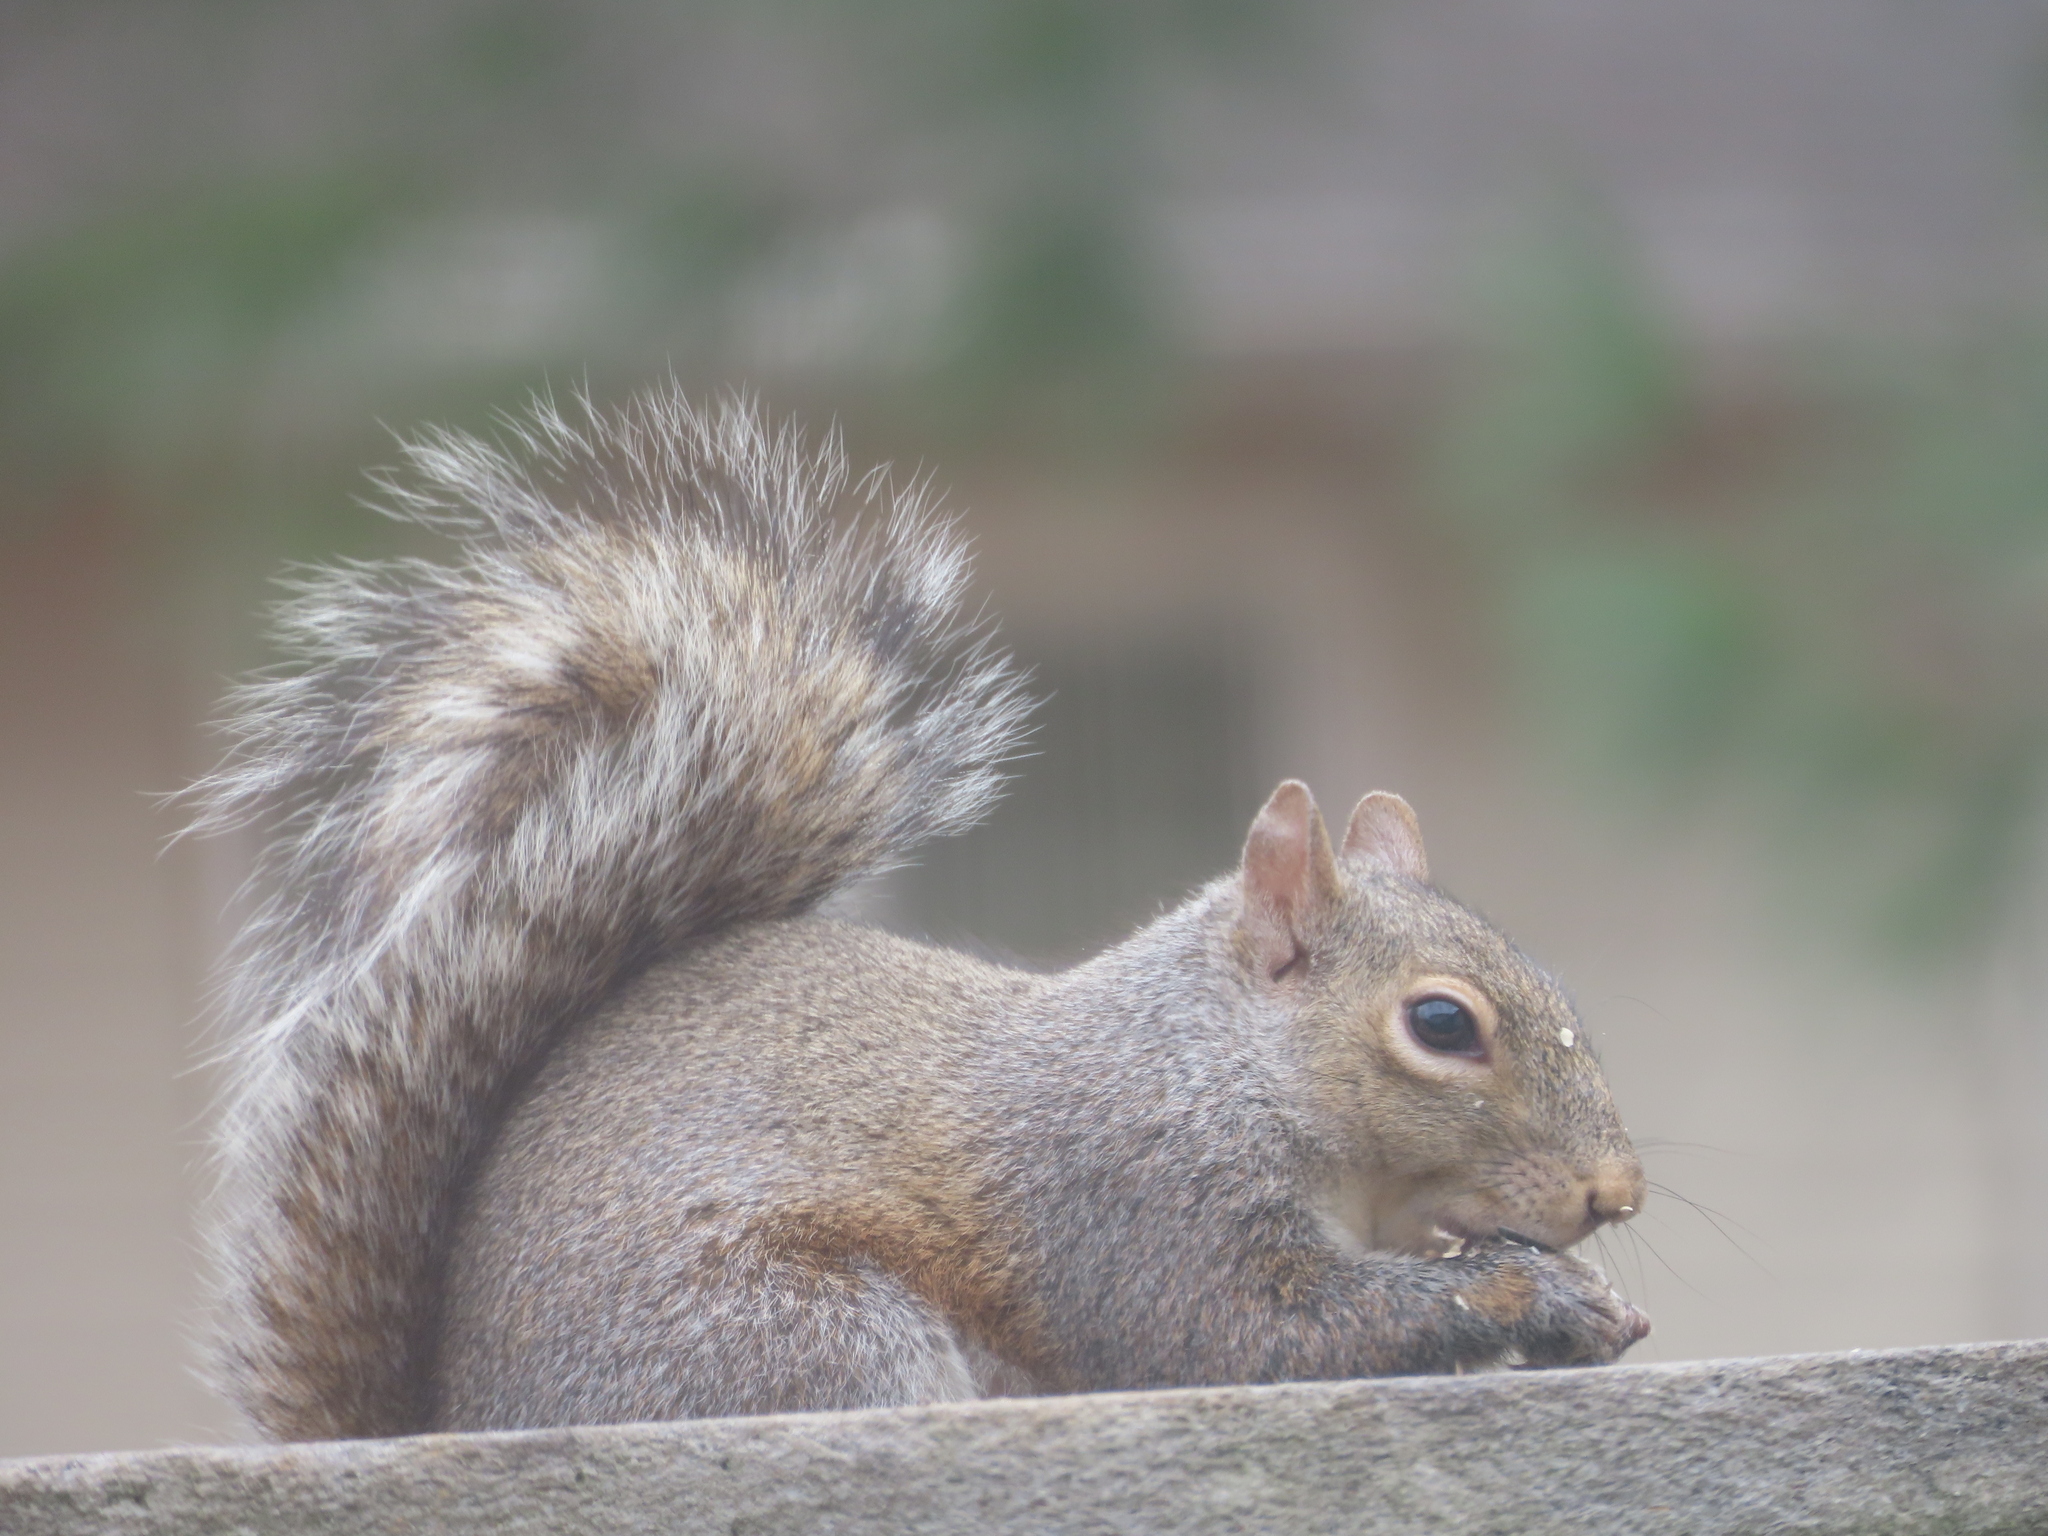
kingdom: Animalia
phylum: Chordata
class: Mammalia
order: Rodentia
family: Sciuridae
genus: Sciurus
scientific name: Sciurus carolinensis
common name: Eastern gray squirrel
